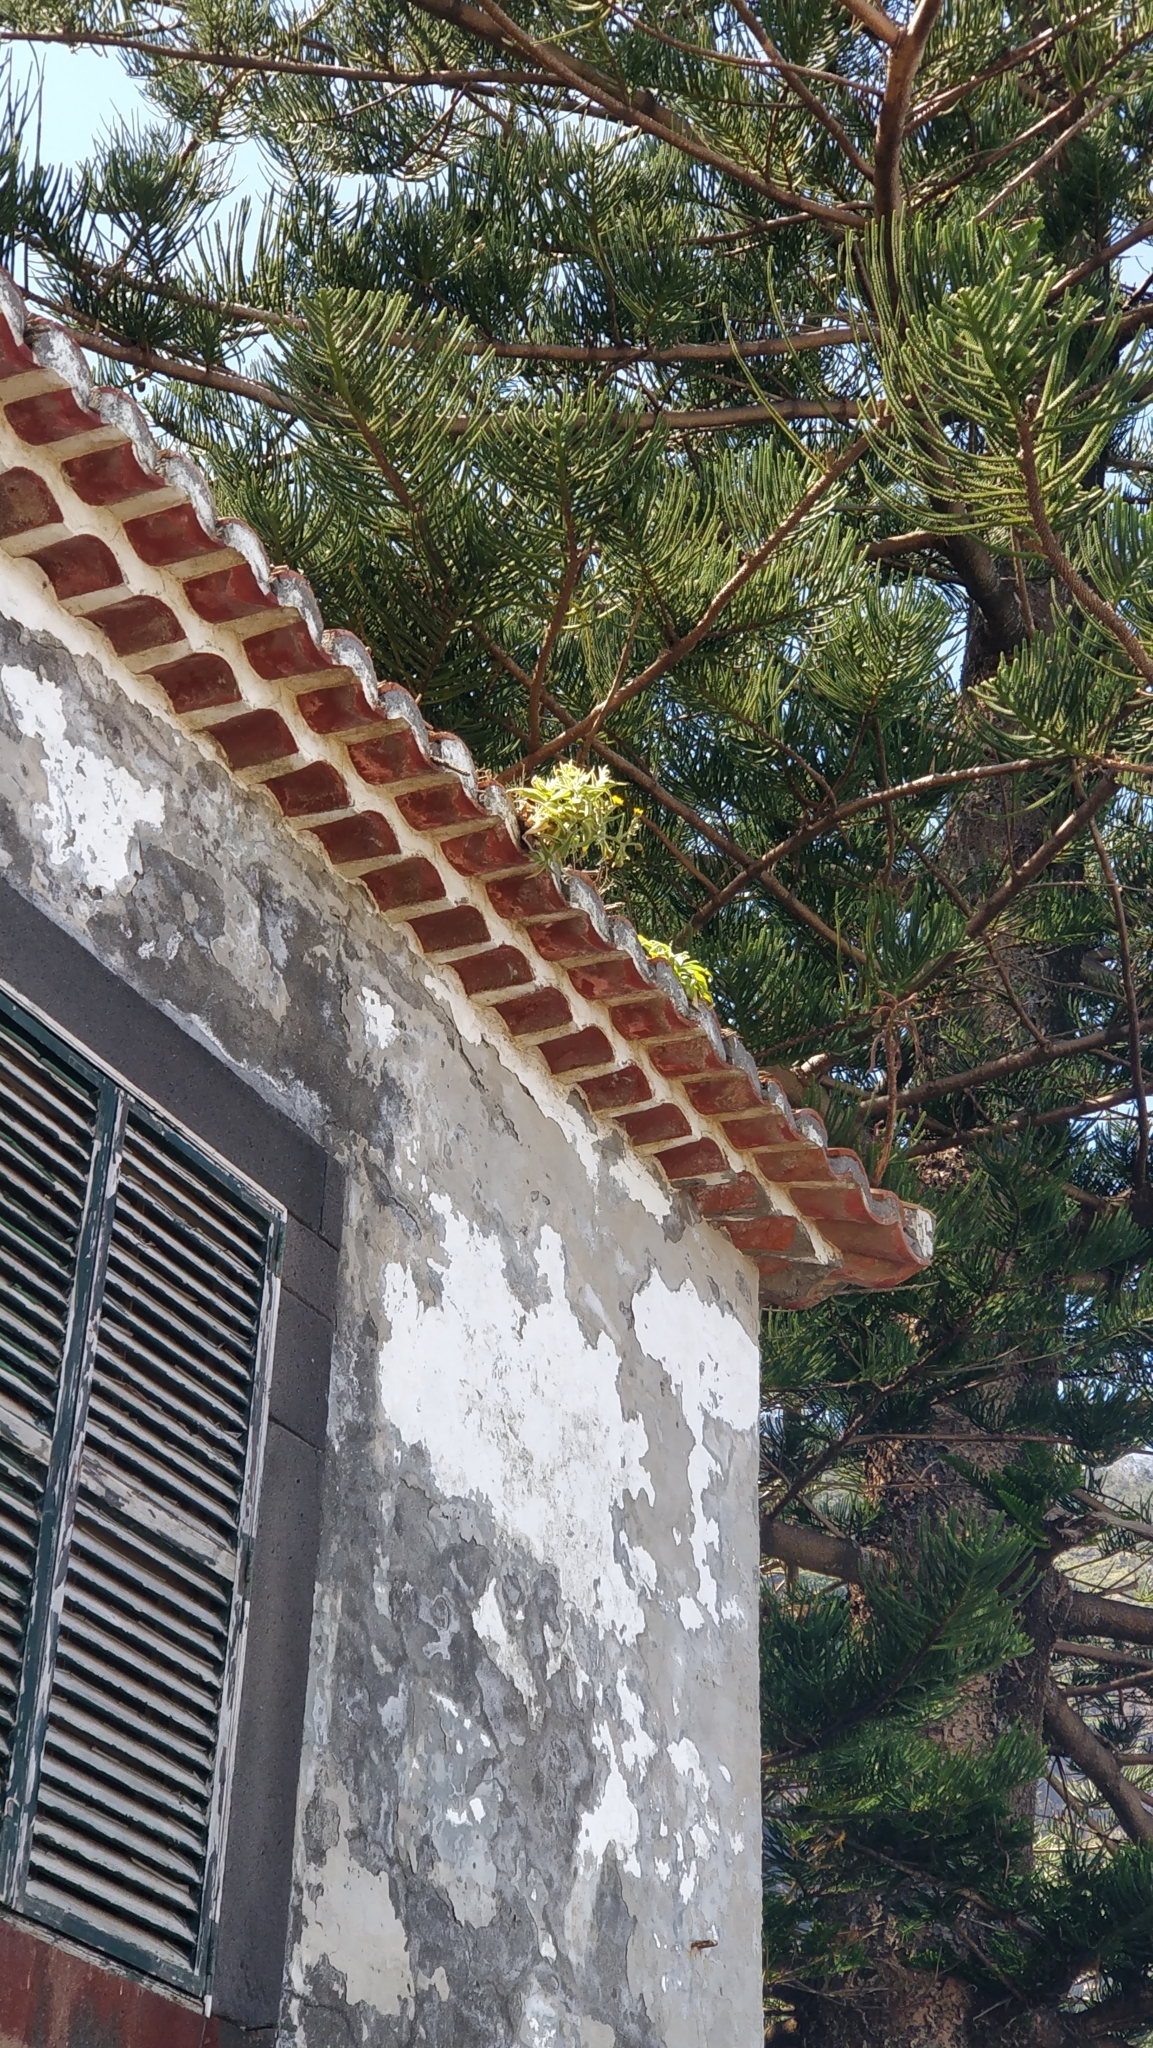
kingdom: Plantae
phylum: Tracheophyta
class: Magnoliopsida
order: Asterales
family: Asteraceae
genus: Andryala
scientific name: Andryala glandulosa
